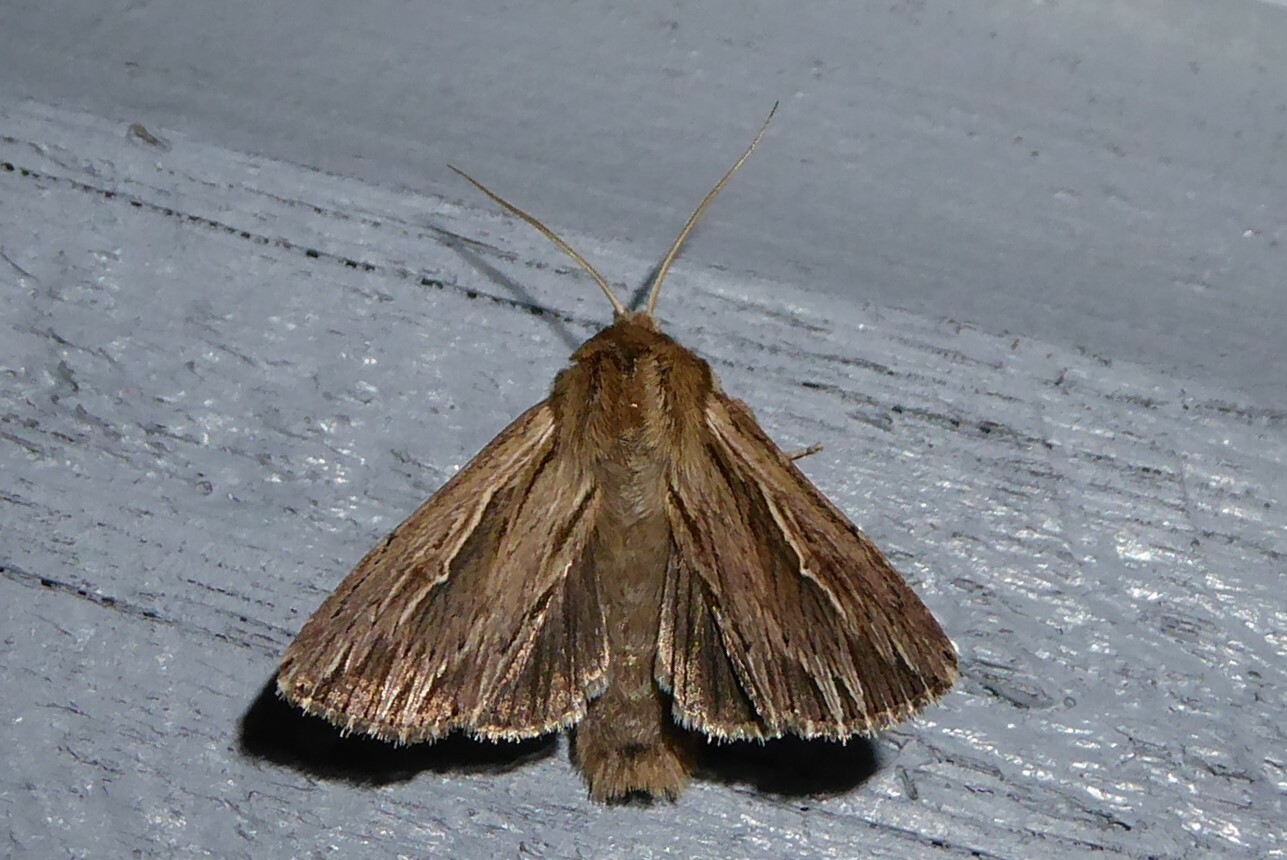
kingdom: Animalia
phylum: Arthropoda
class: Insecta
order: Lepidoptera
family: Noctuidae
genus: Persectania
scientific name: Persectania aversa
